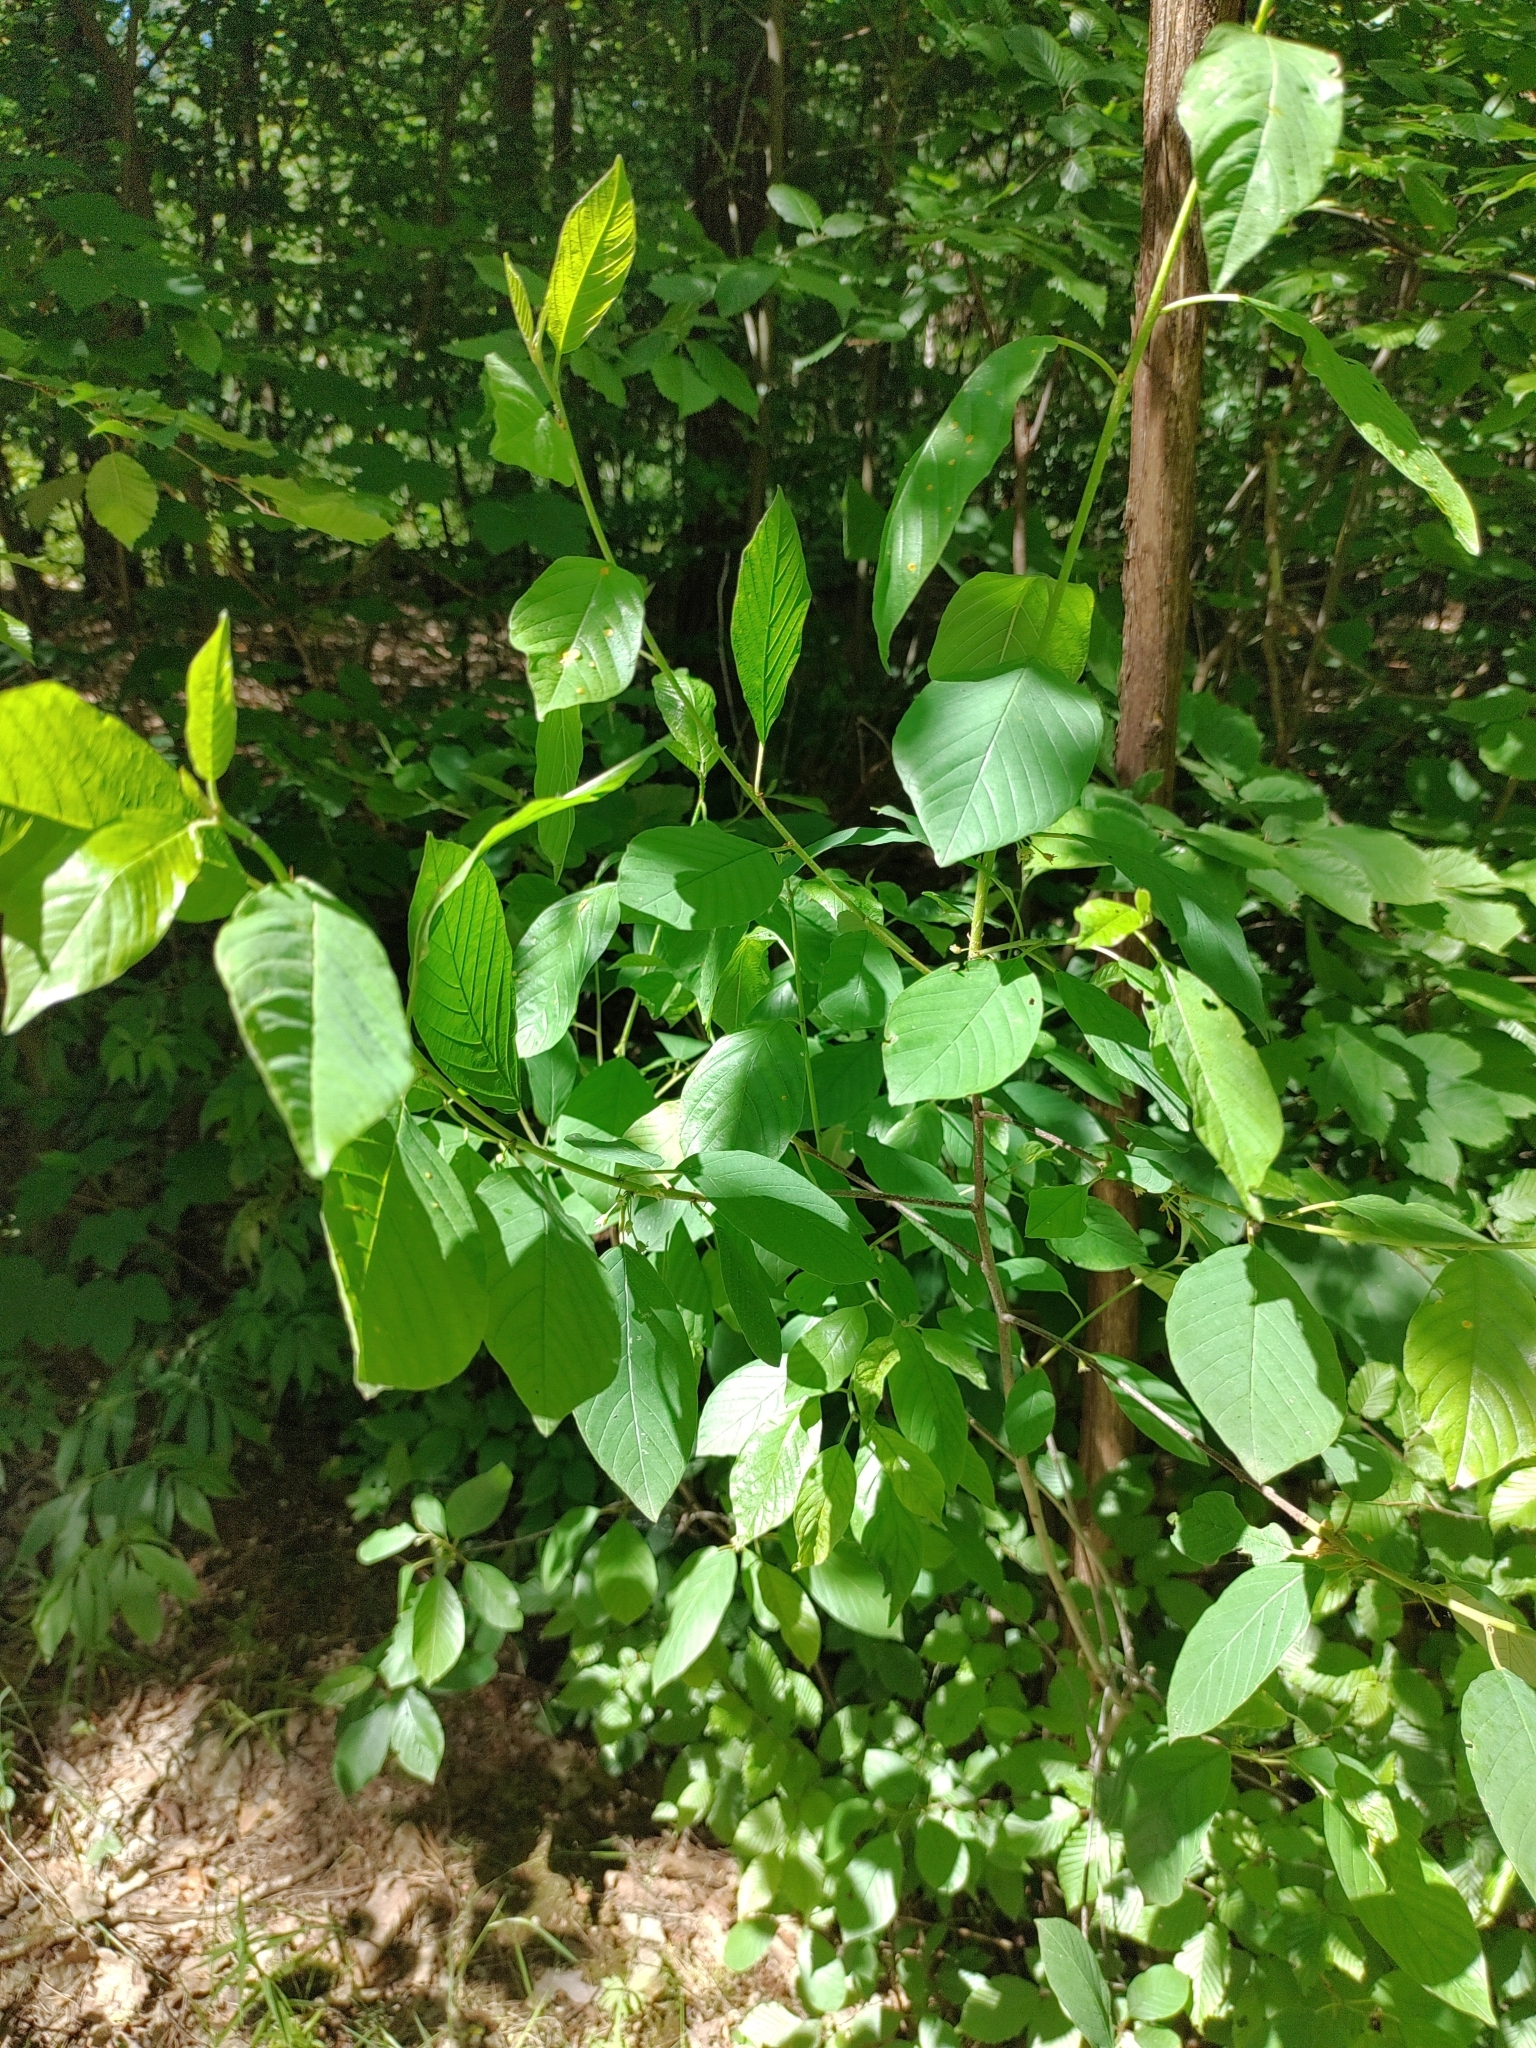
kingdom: Plantae
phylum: Tracheophyta
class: Magnoliopsida
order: Rosales
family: Rhamnaceae
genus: Frangula
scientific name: Frangula alnus
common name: Alder buckthorn
